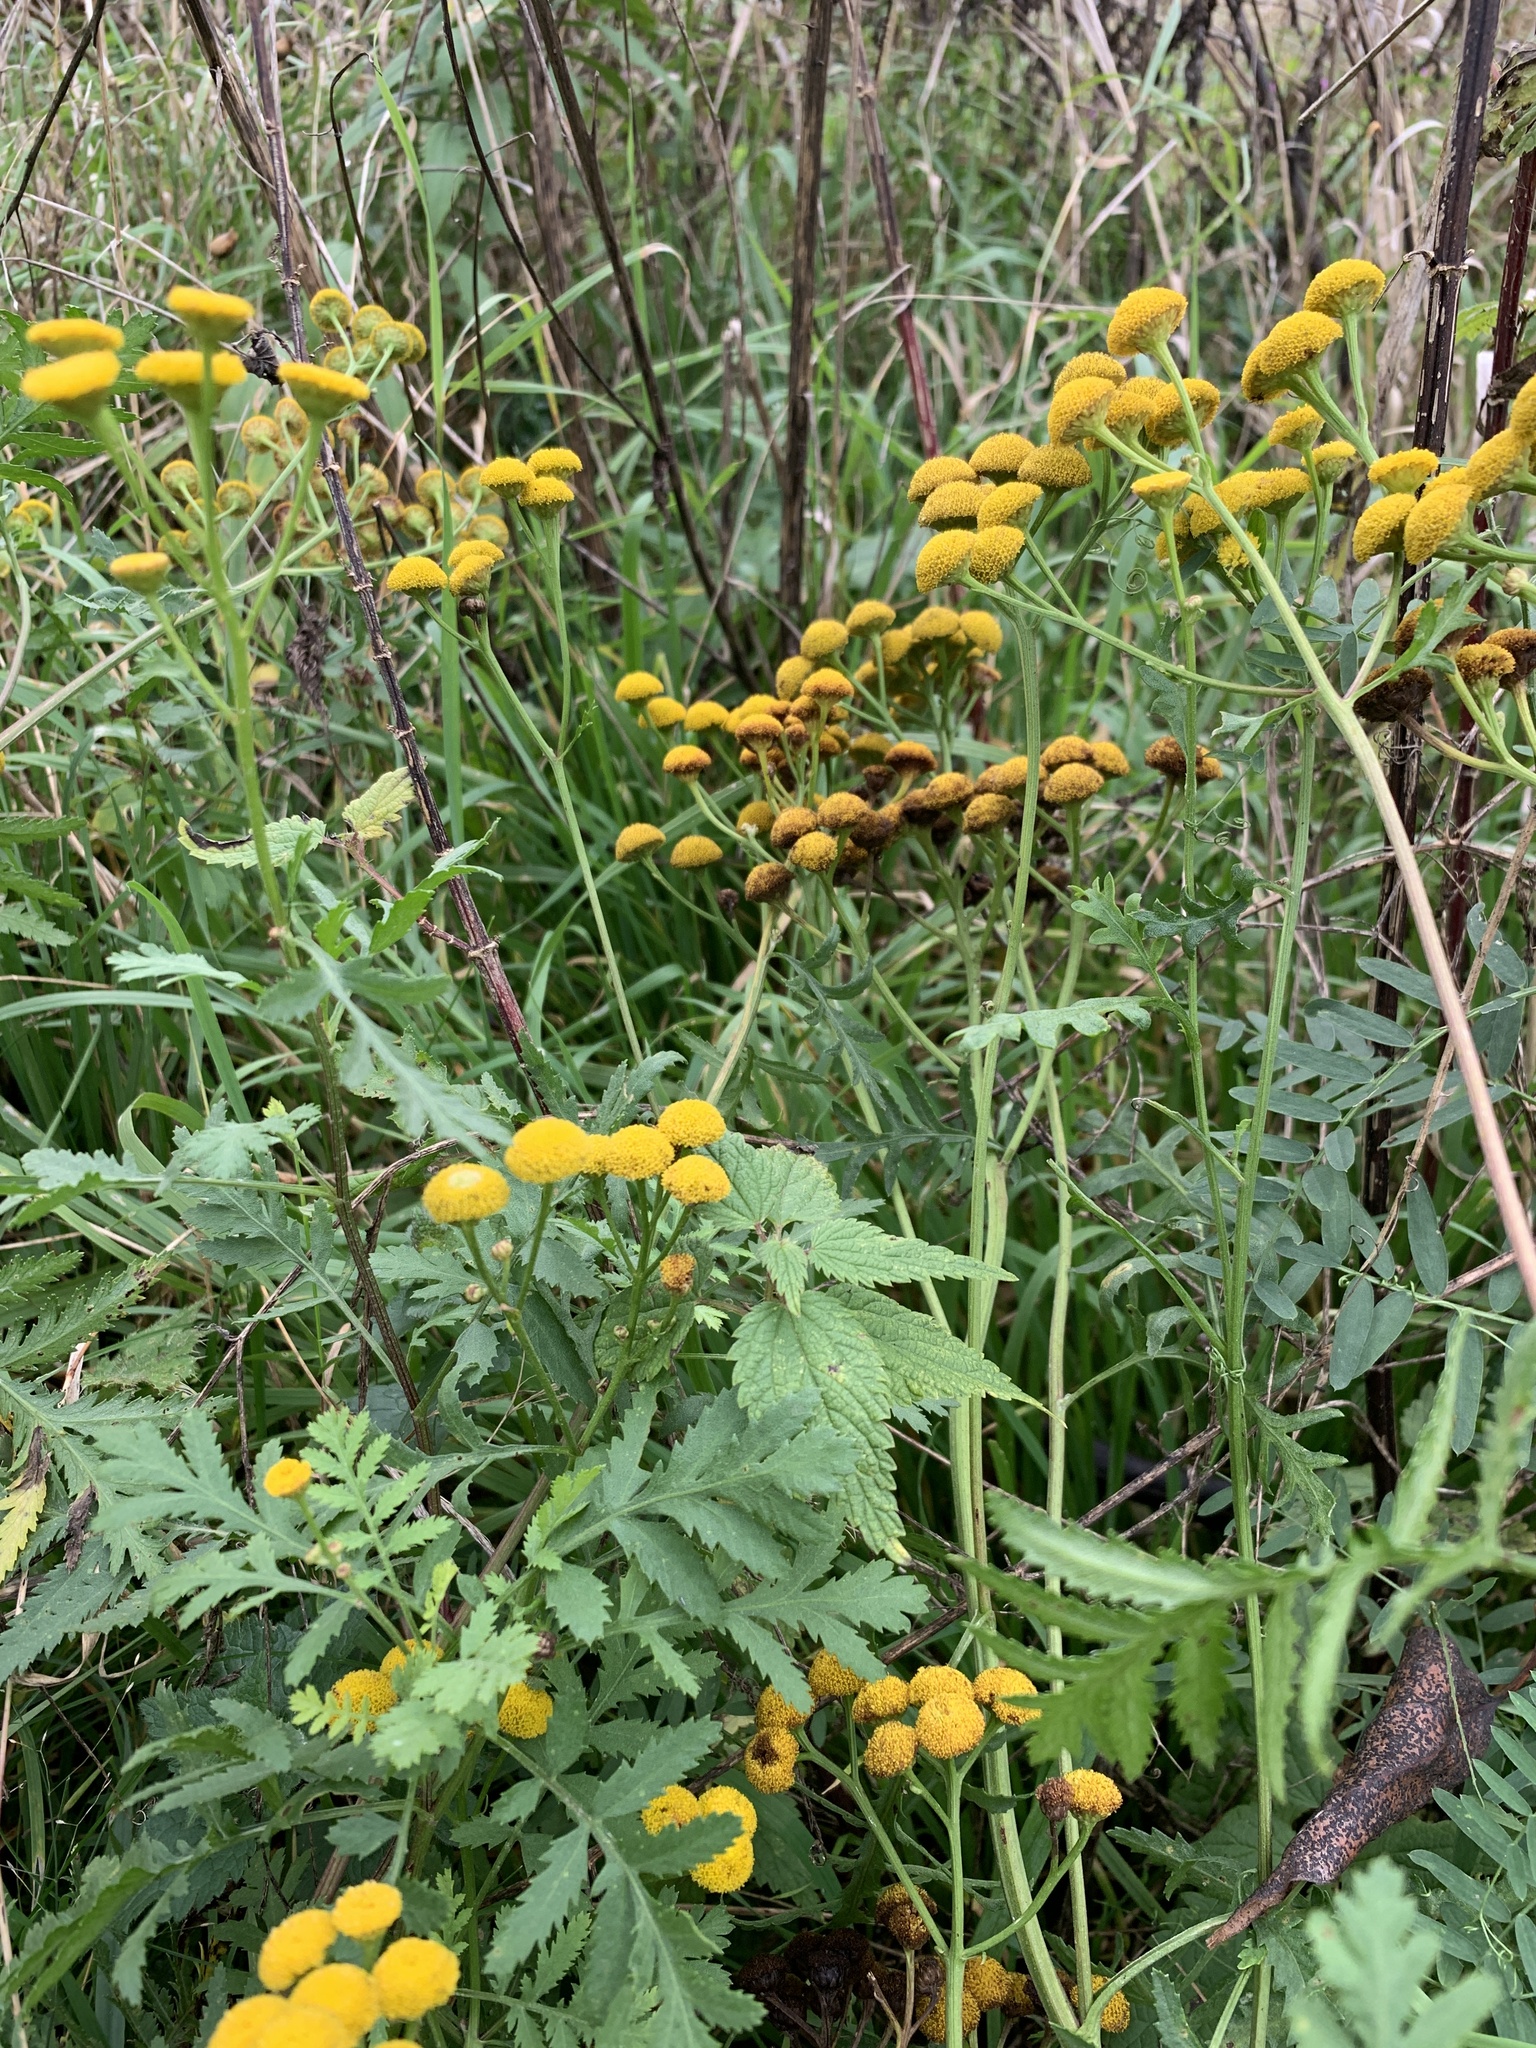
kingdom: Plantae
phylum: Tracheophyta
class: Magnoliopsida
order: Asterales
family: Asteraceae
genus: Tanacetum
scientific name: Tanacetum vulgare
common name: Common tansy
